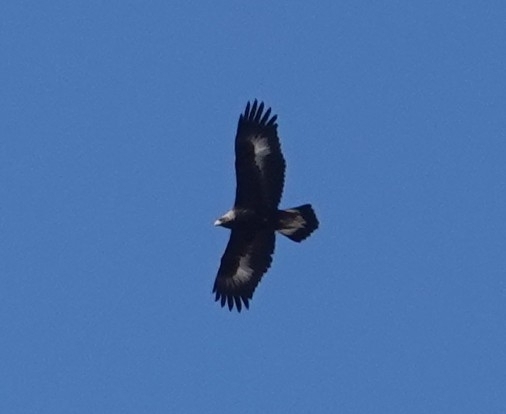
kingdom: Animalia
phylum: Chordata
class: Aves
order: Accipitriformes
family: Accipitridae
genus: Aquila
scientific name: Aquila chrysaetos
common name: Golden eagle
